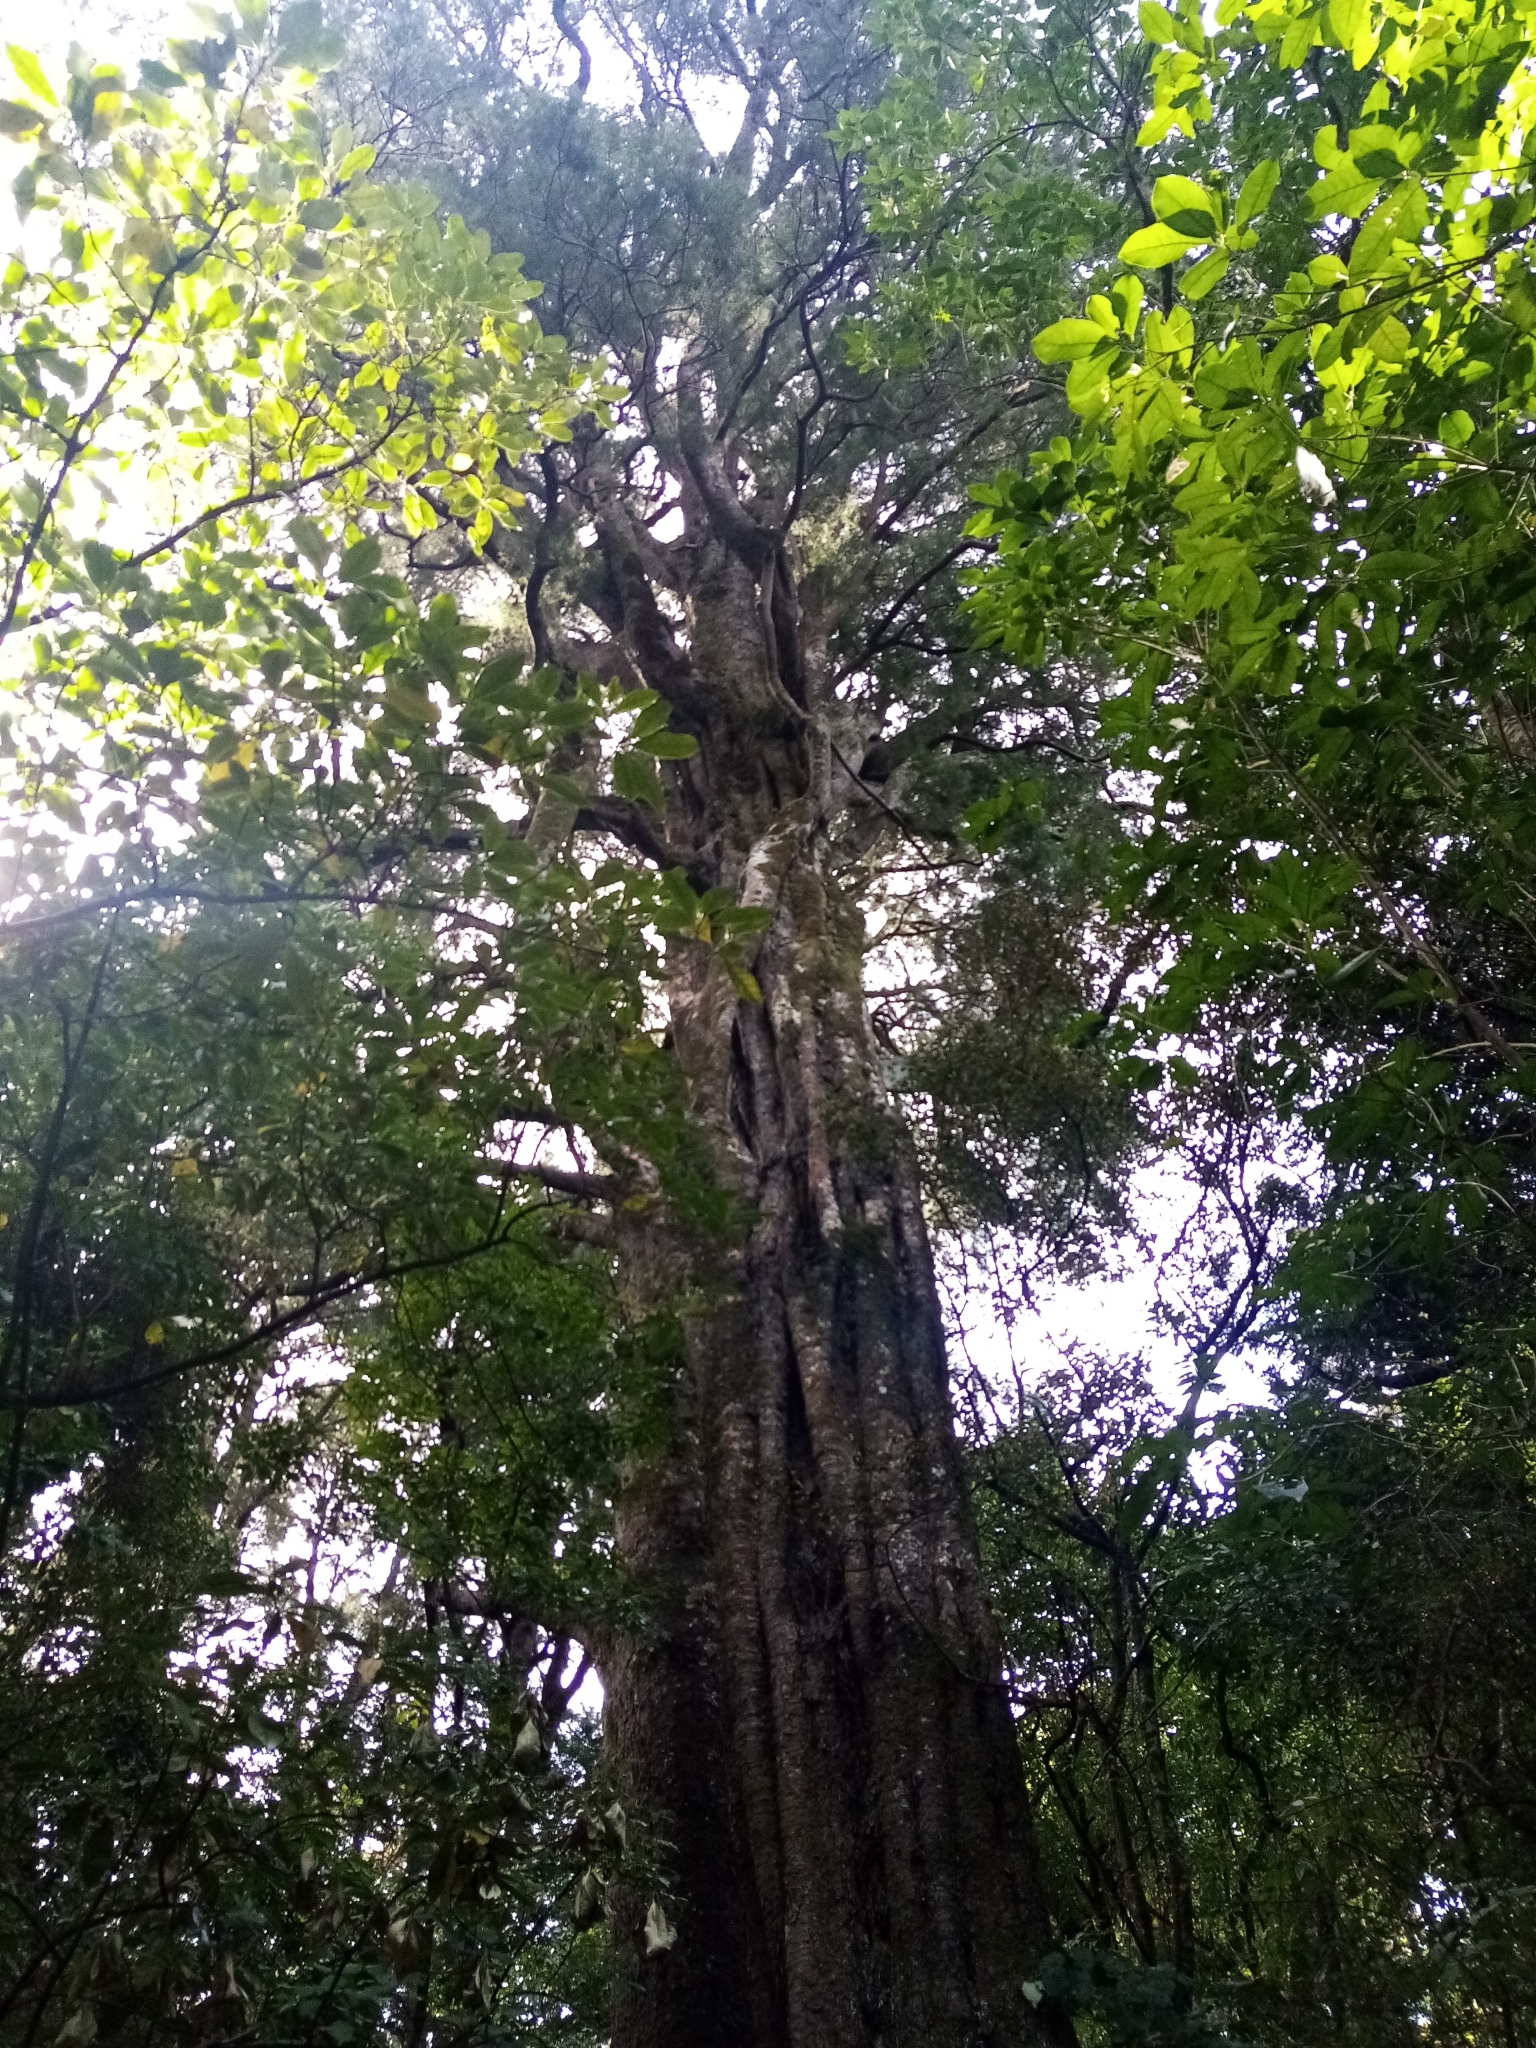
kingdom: Plantae
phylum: Tracheophyta
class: Pinopsida
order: Pinales
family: Podocarpaceae
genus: Dacrycarpus
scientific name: Dacrycarpus dacrydioides
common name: White pine
